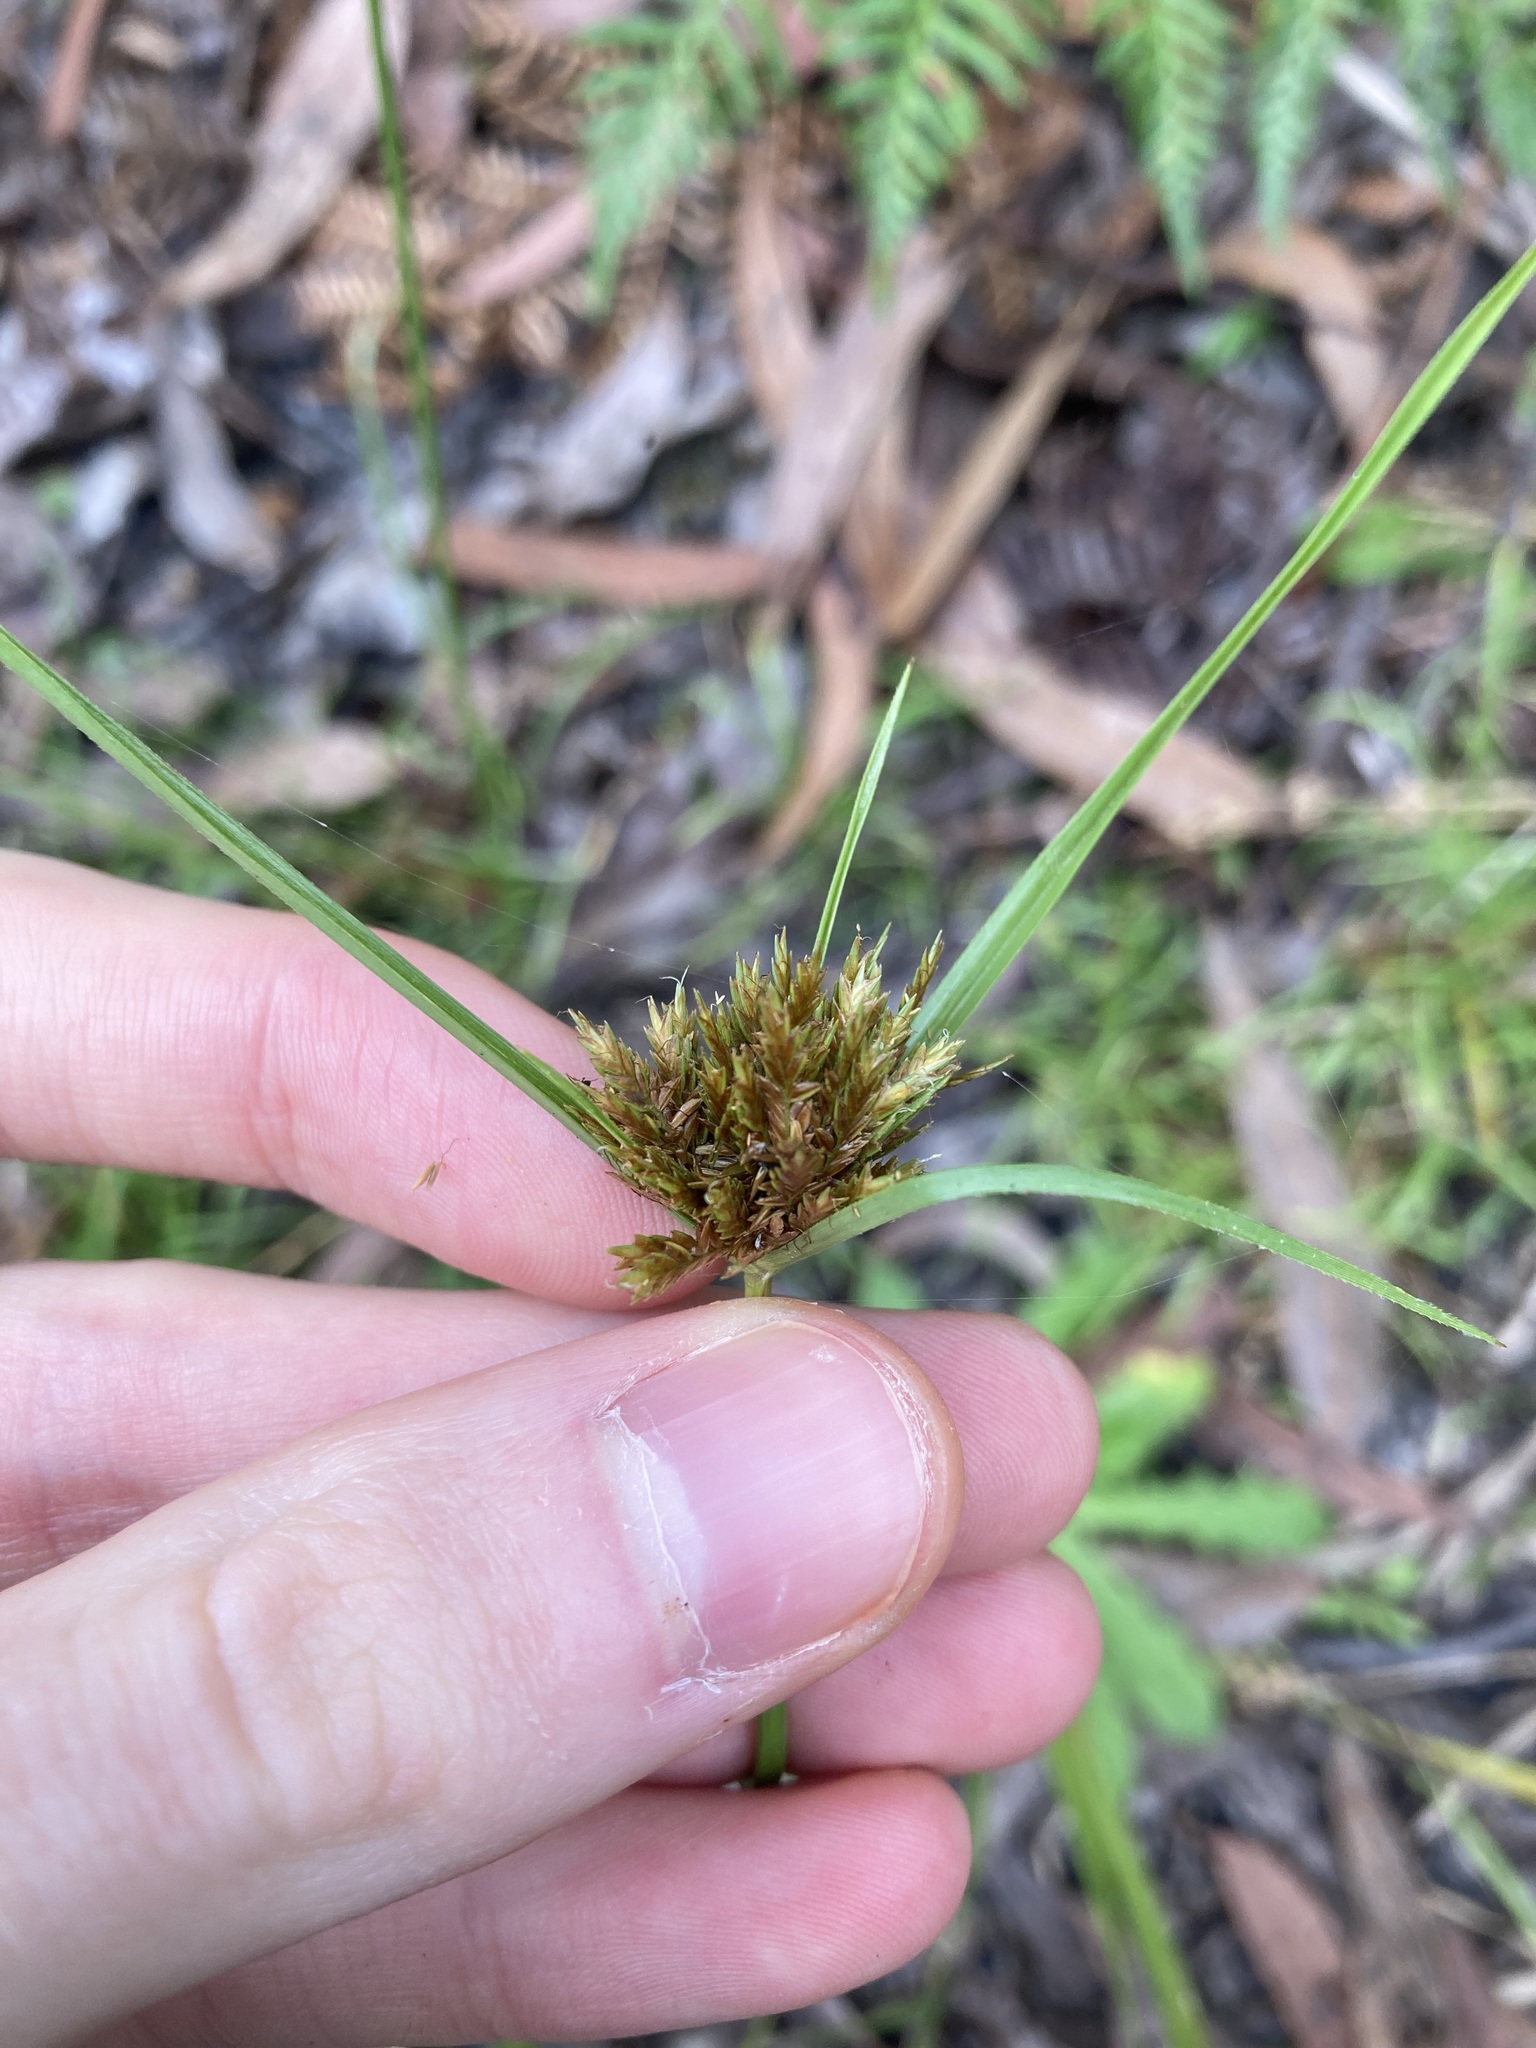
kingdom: Plantae
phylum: Tracheophyta
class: Liliopsida
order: Poales
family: Cyperaceae
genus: Cyperus
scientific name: Cyperus polystachyos
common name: Bunchy flat sedge
